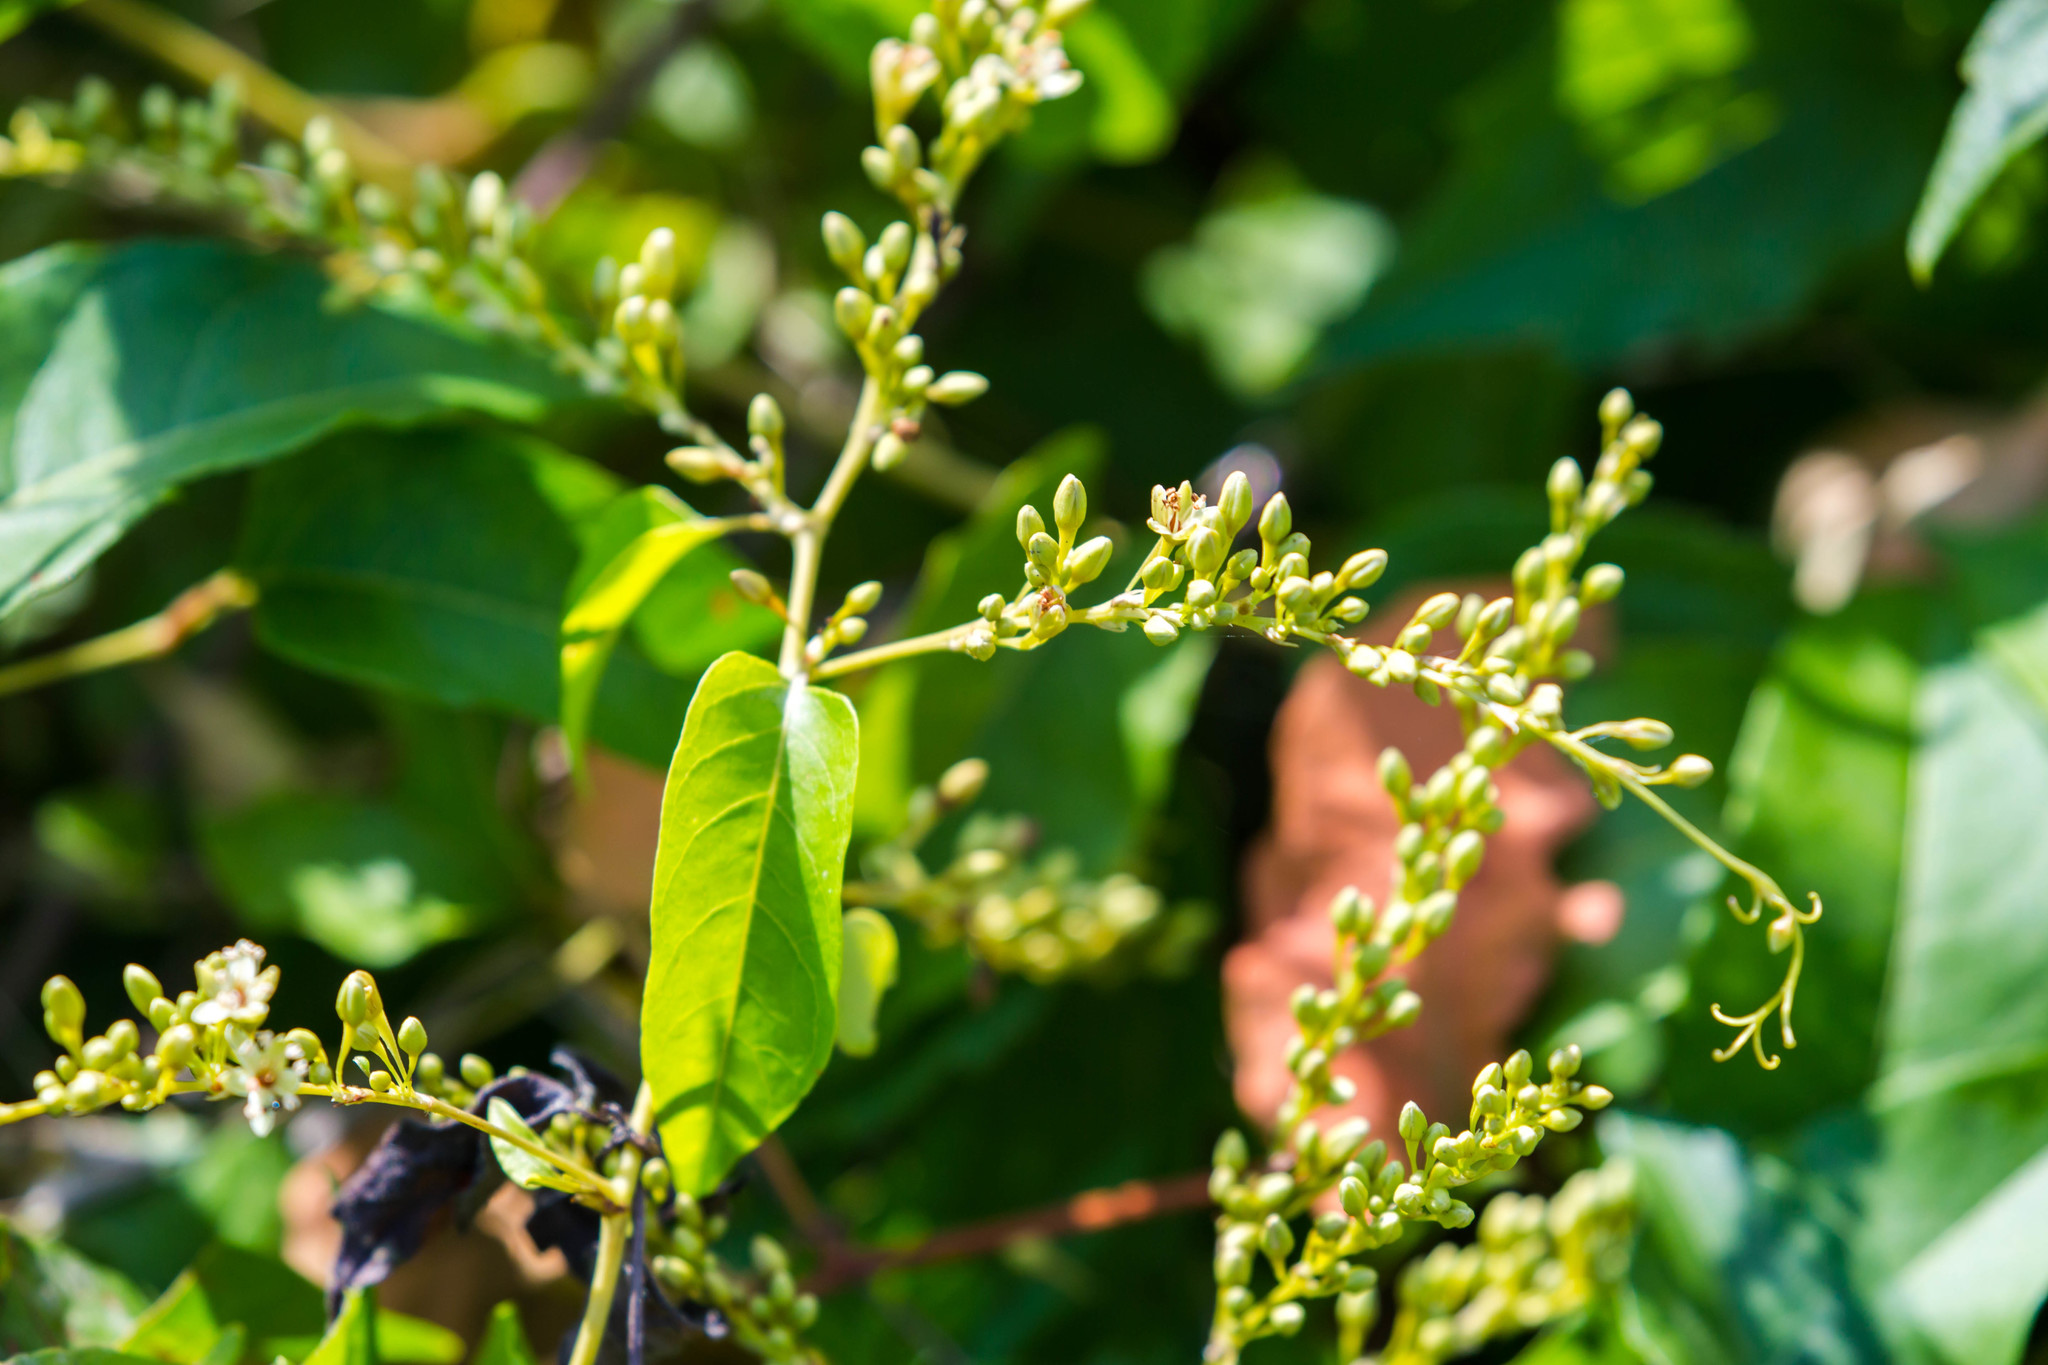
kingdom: Plantae
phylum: Tracheophyta
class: Magnoliopsida
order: Caryophyllales
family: Polygonaceae
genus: Brunnichia
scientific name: Brunnichia ovata
